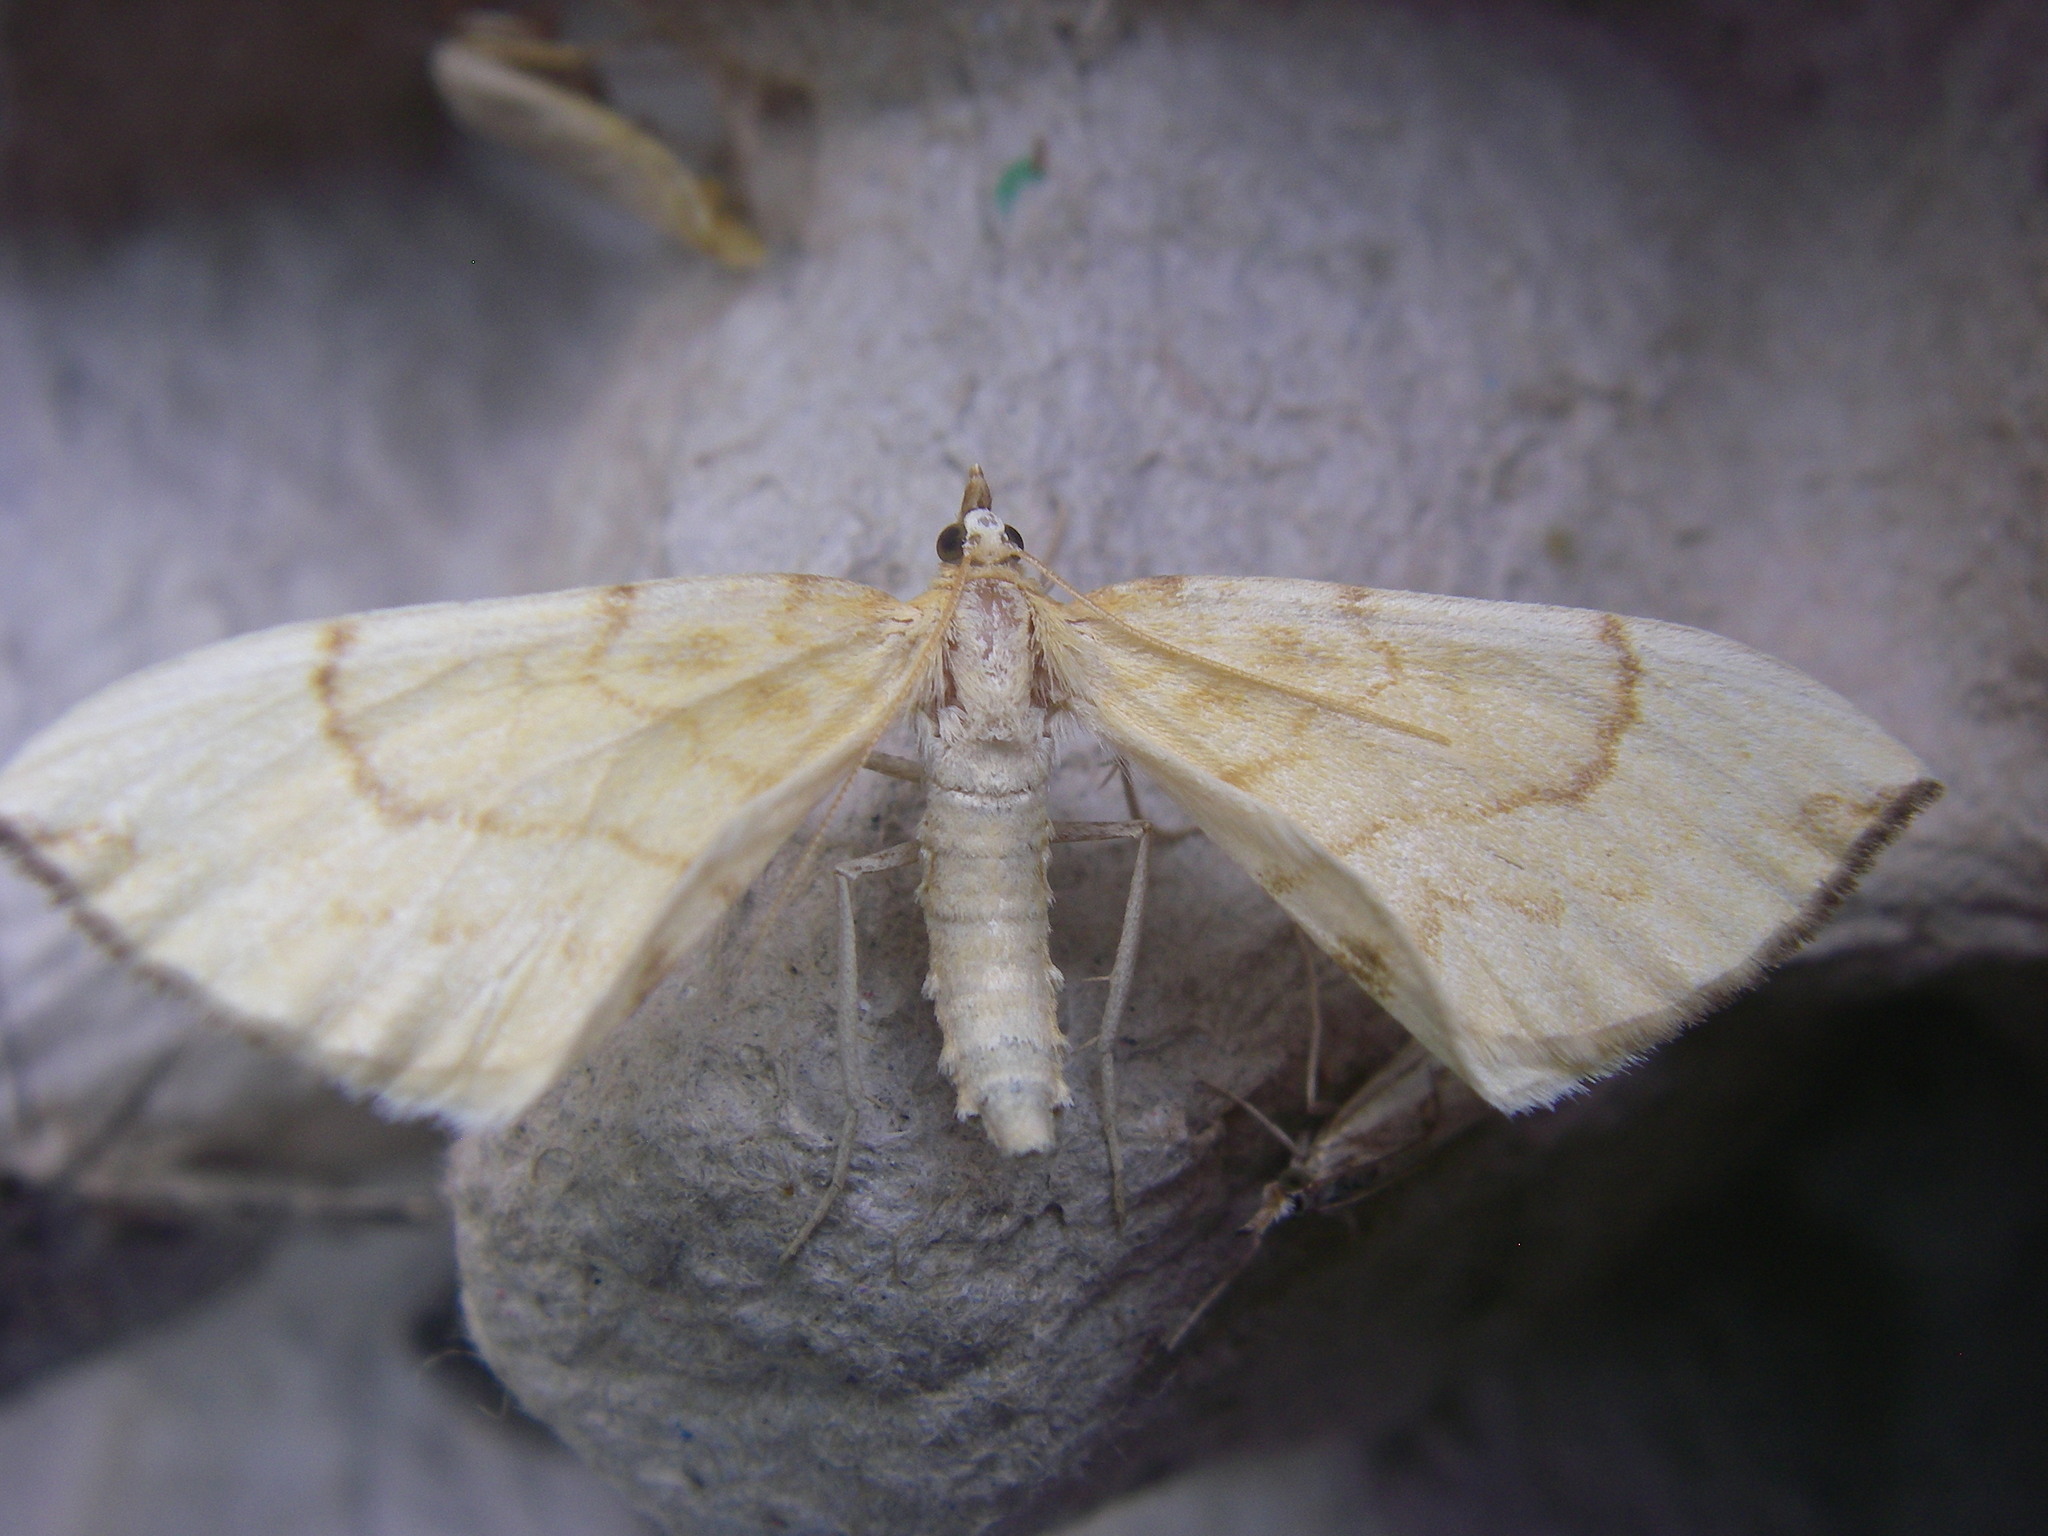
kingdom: Animalia
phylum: Arthropoda
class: Insecta
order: Lepidoptera
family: Geometridae
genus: Eulithis
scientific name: Eulithis pyraliata
